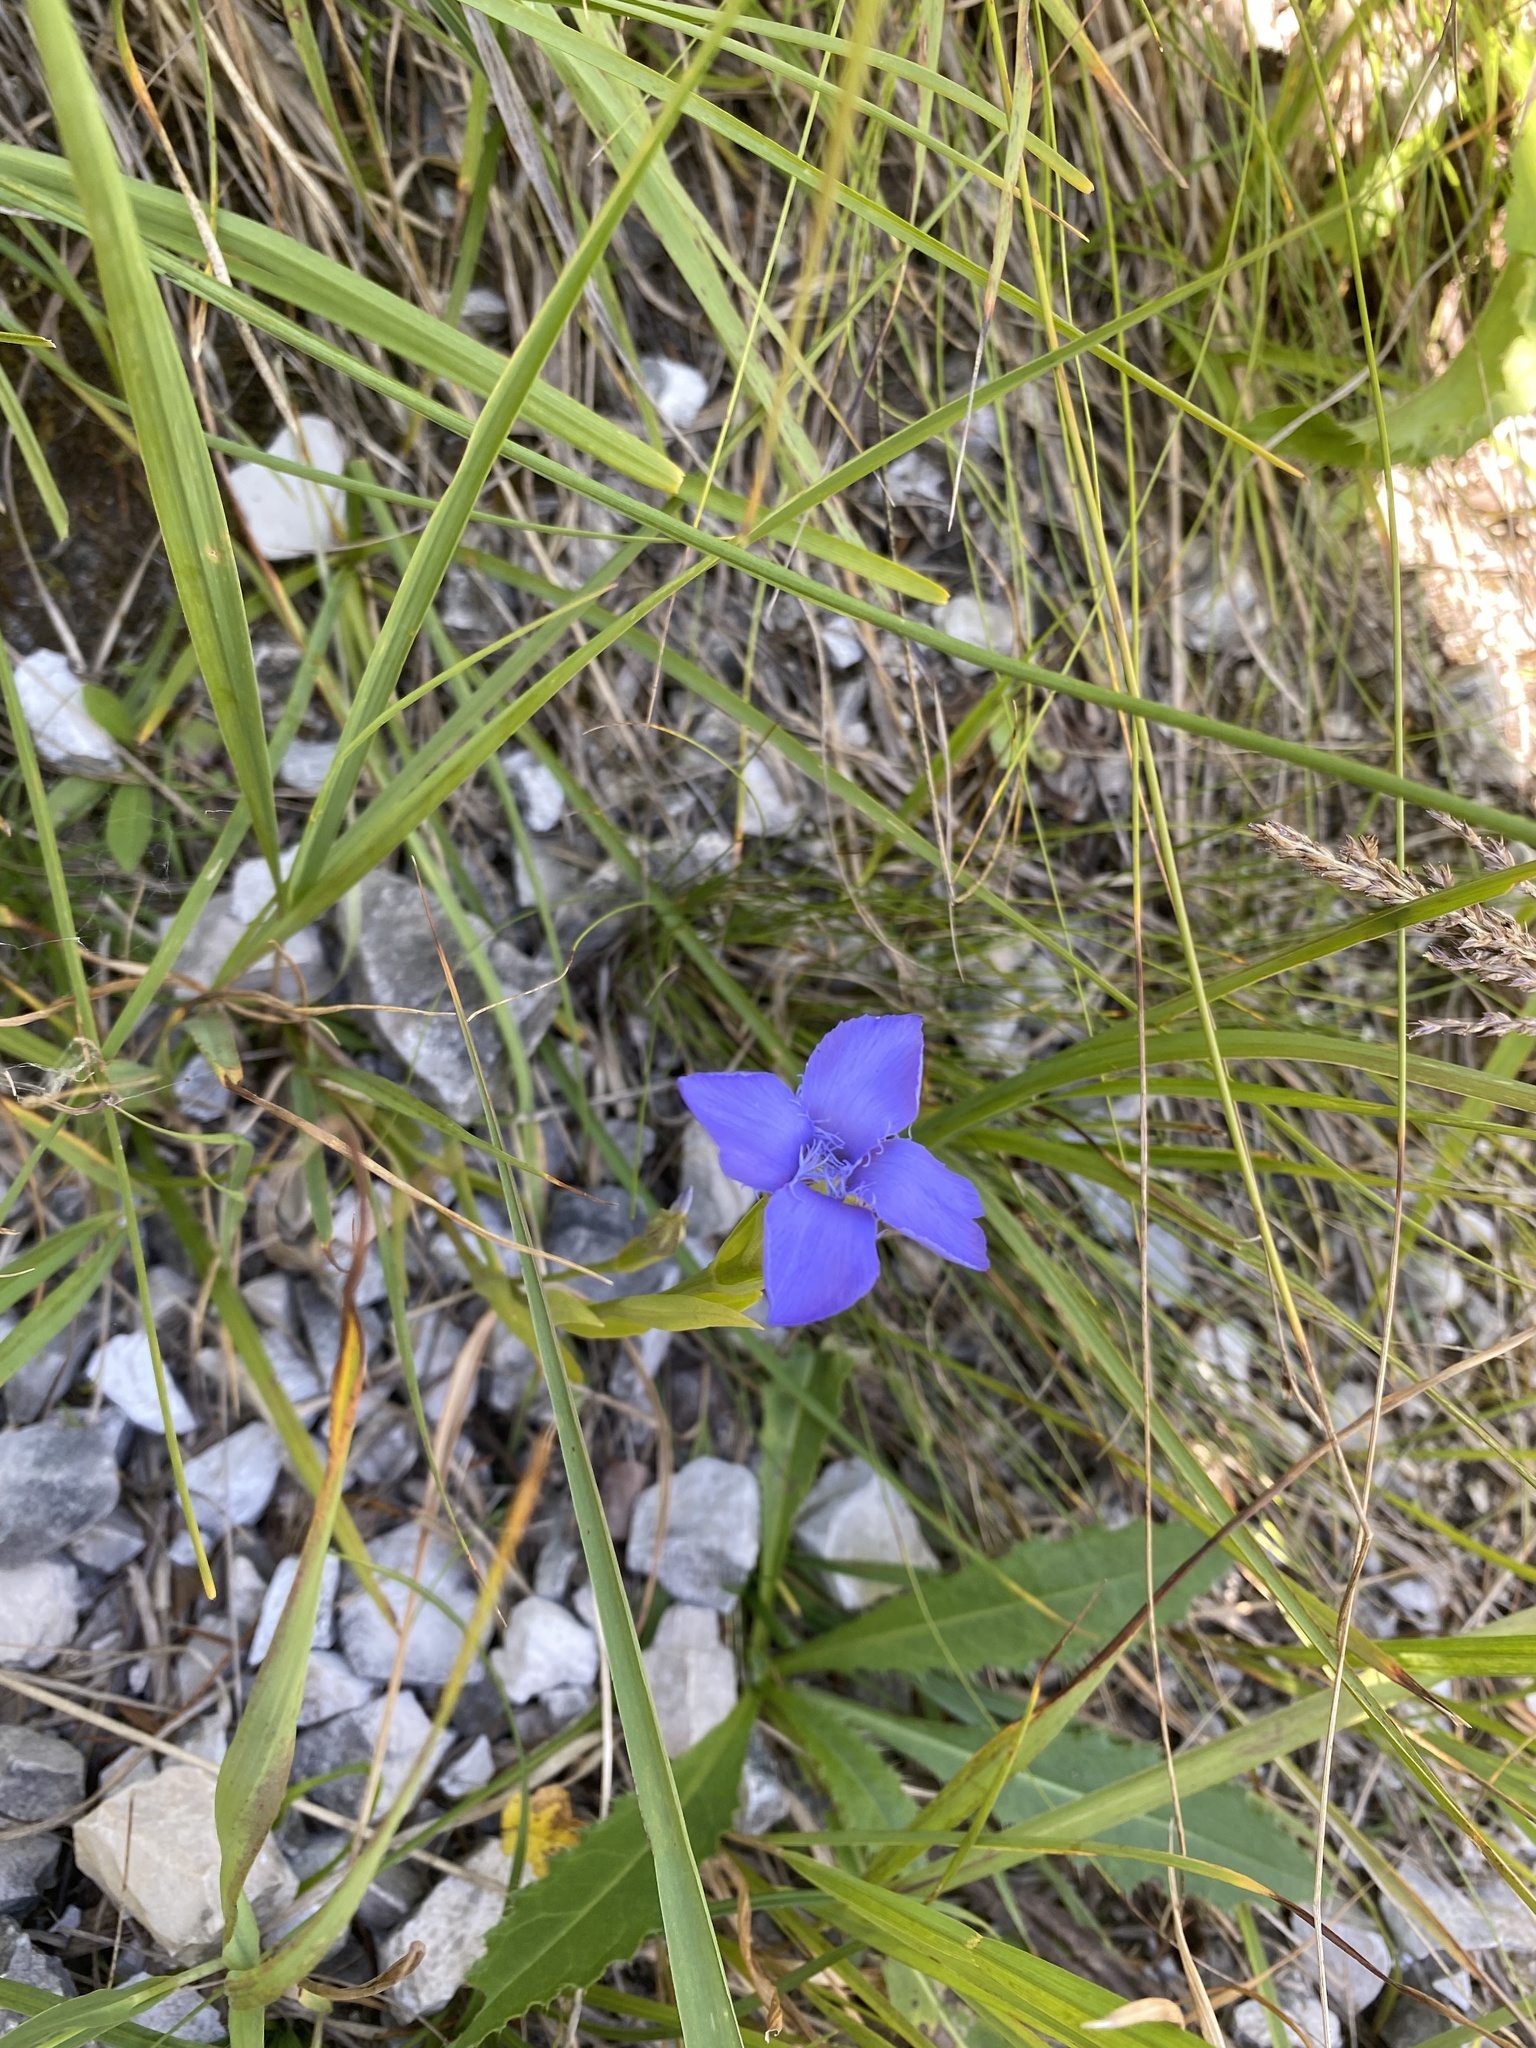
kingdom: Plantae
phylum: Tracheophyta
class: Magnoliopsida
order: Gentianales
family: Gentianaceae
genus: Gentianopsis
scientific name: Gentianopsis ciliata
